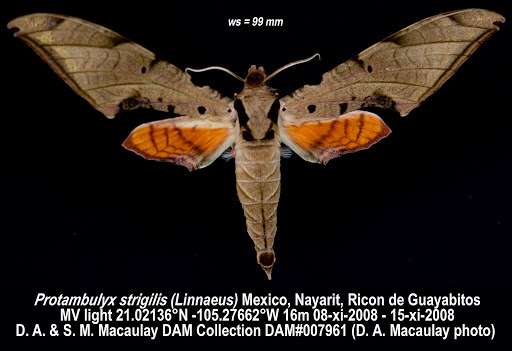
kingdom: Animalia
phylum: Arthropoda
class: Insecta
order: Lepidoptera
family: Sphingidae
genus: Protambulyx
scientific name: Protambulyx strigilis
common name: Streaked sphinx
